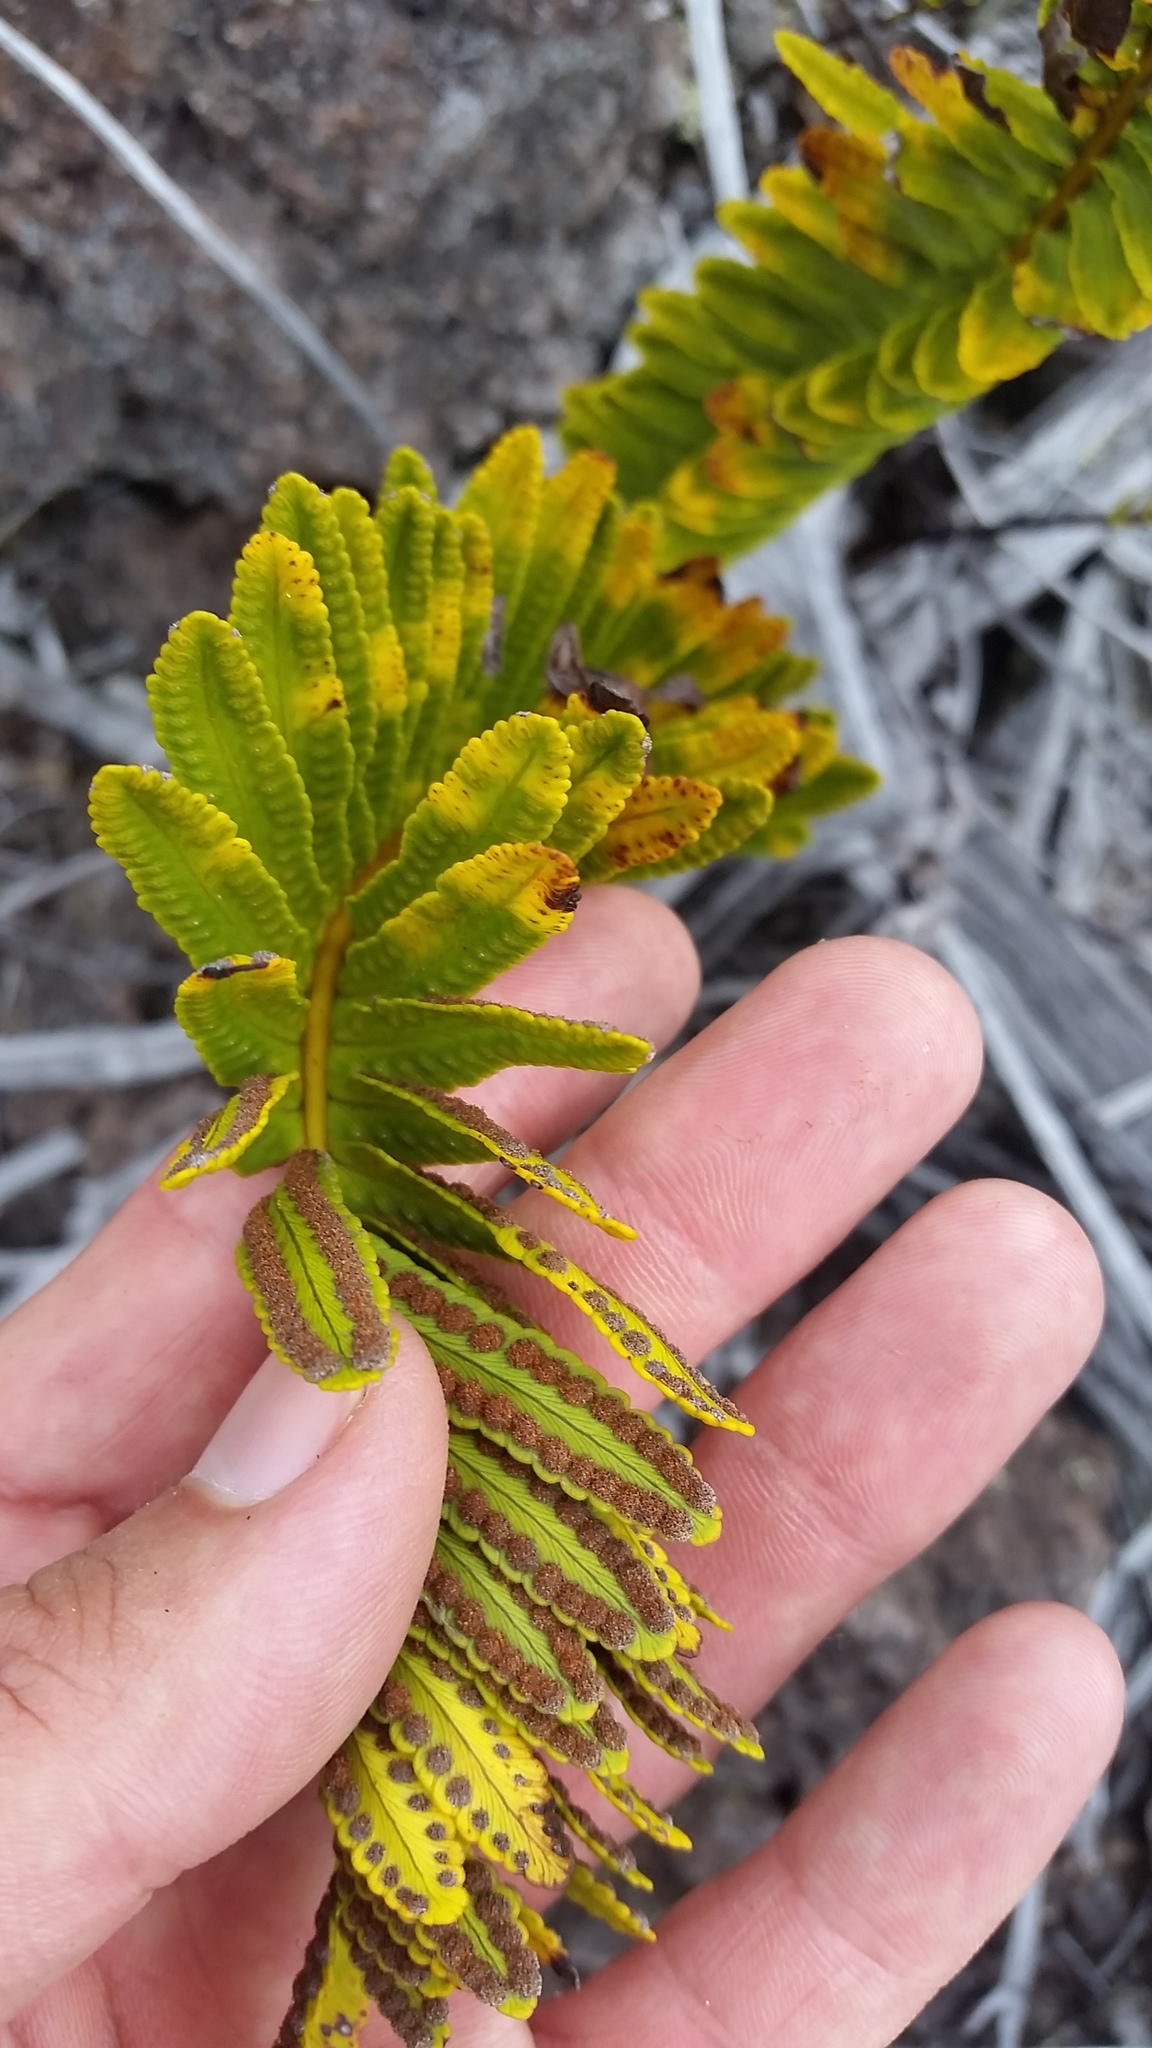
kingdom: Plantae
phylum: Tracheophyta
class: Polypodiopsida
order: Polypodiales
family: Polypodiaceae
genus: Polypodium
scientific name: Polypodium pellucidum
